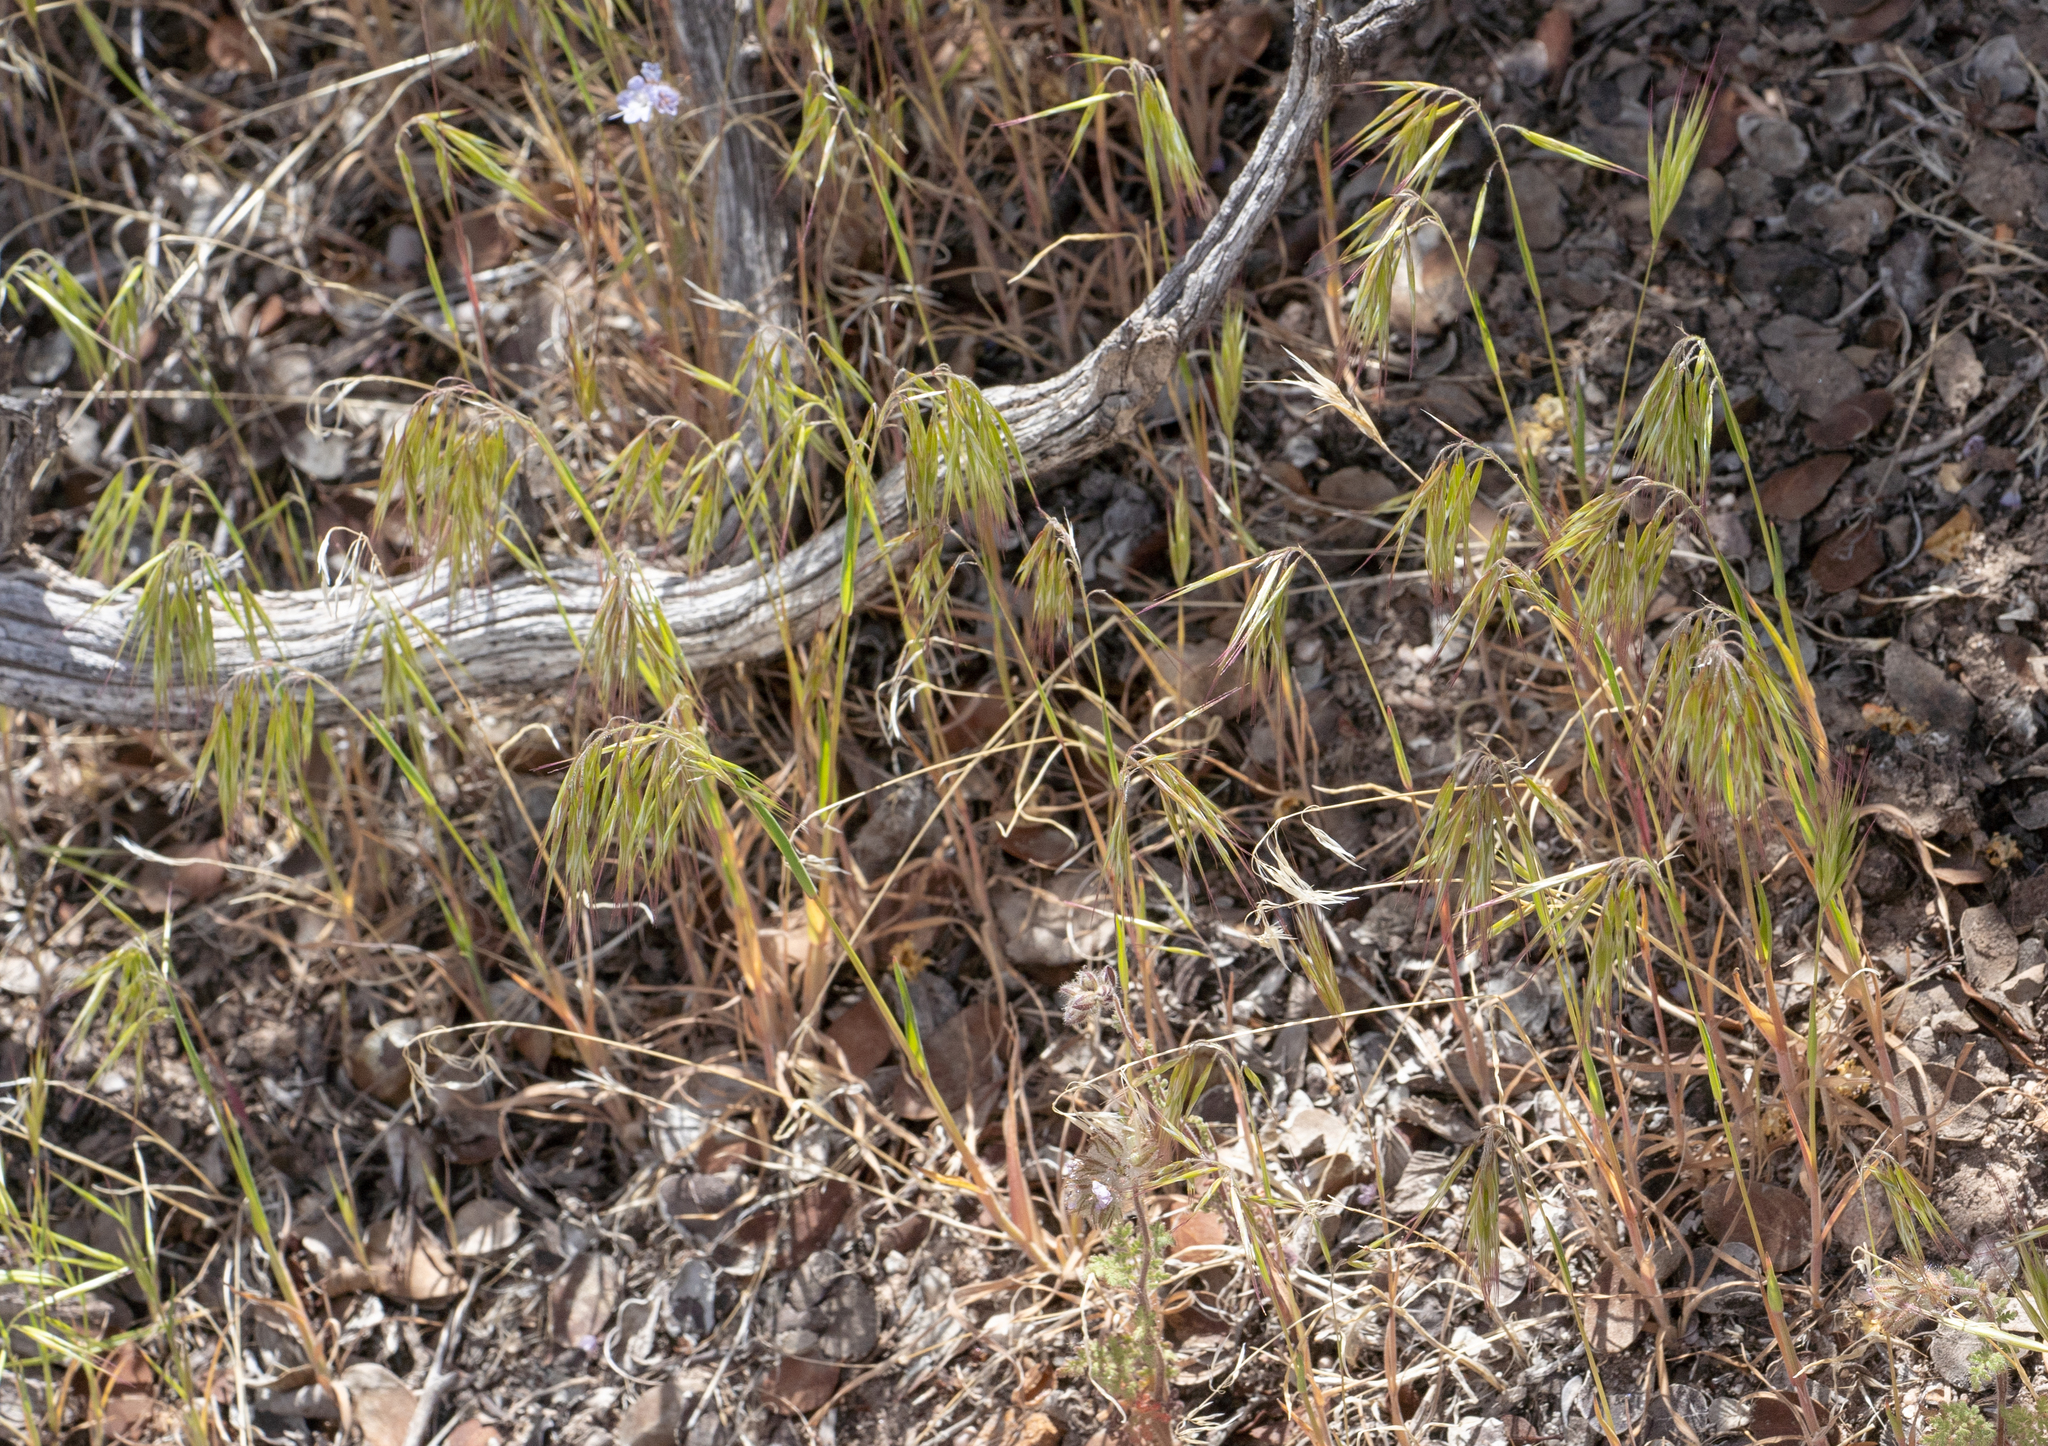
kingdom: Plantae
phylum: Tracheophyta
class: Liliopsida
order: Poales
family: Poaceae
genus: Bromus
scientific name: Bromus tectorum
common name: Cheatgrass
